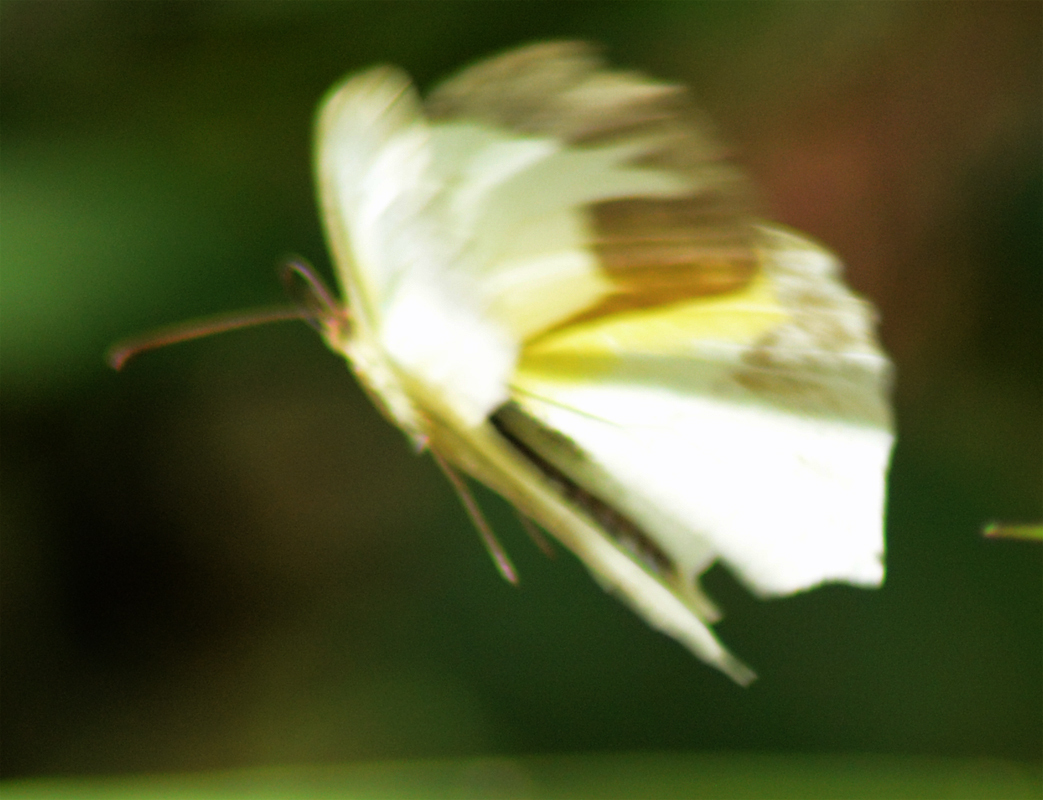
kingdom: Animalia
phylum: Arthropoda
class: Insecta
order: Lepidoptera
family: Pieridae
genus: Abaeis
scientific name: Abaeis mexicana
